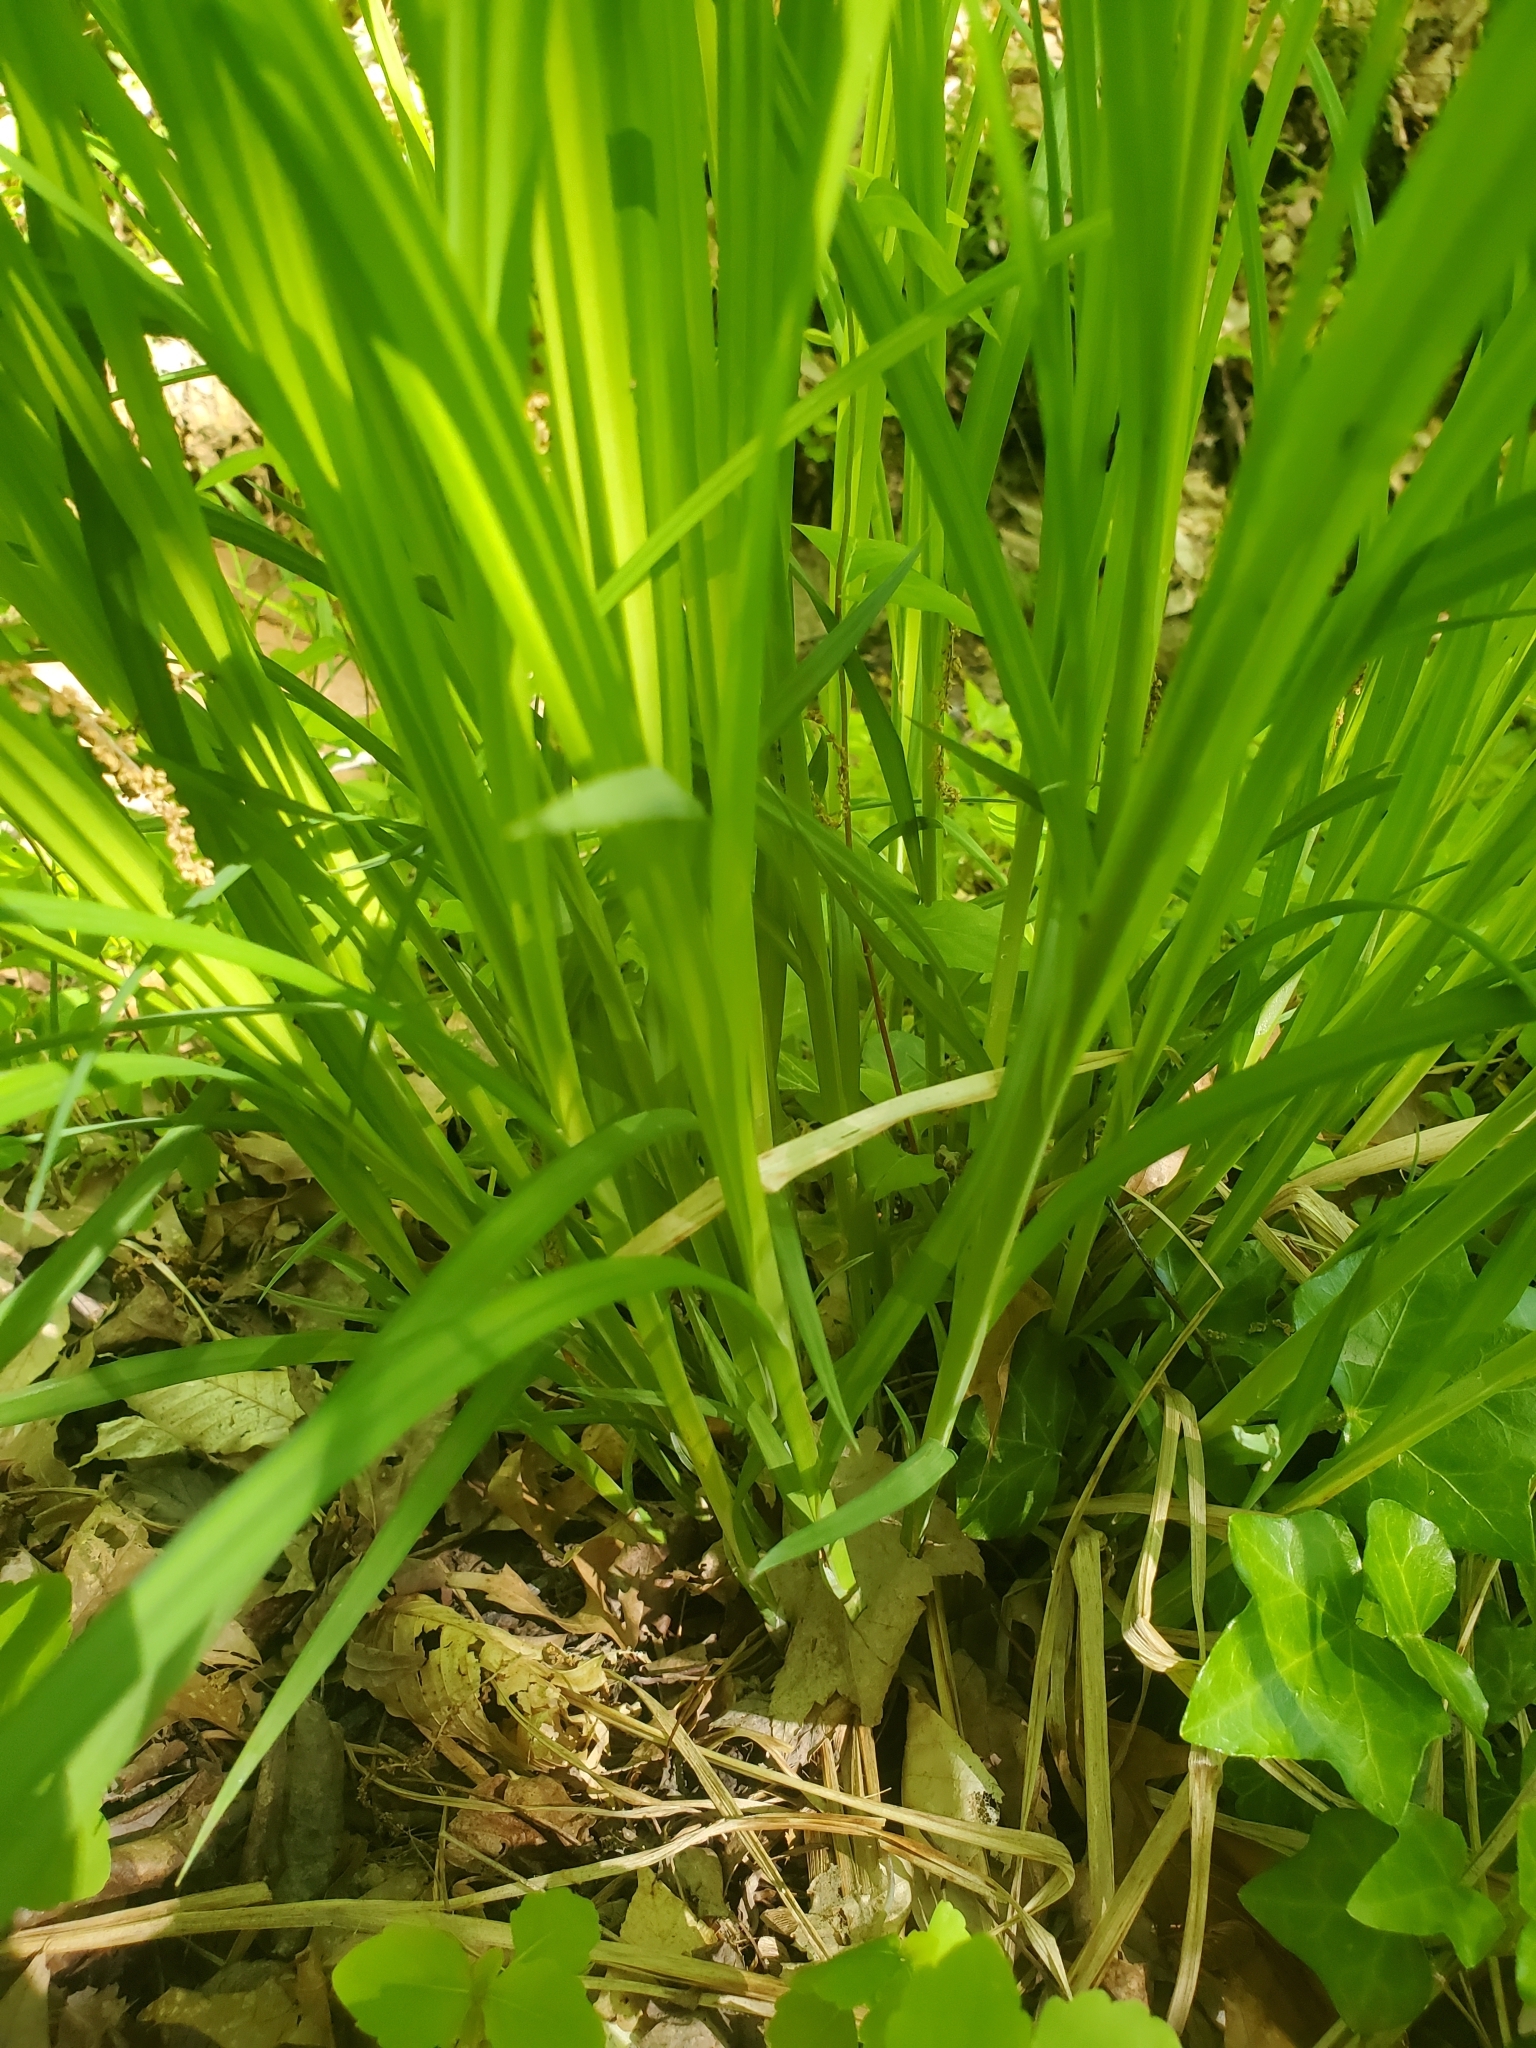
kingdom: Plantae
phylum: Tracheophyta
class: Liliopsida
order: Poales
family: Cyperaceae
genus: Carex
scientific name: Carex crinita
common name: Fringed sedge
